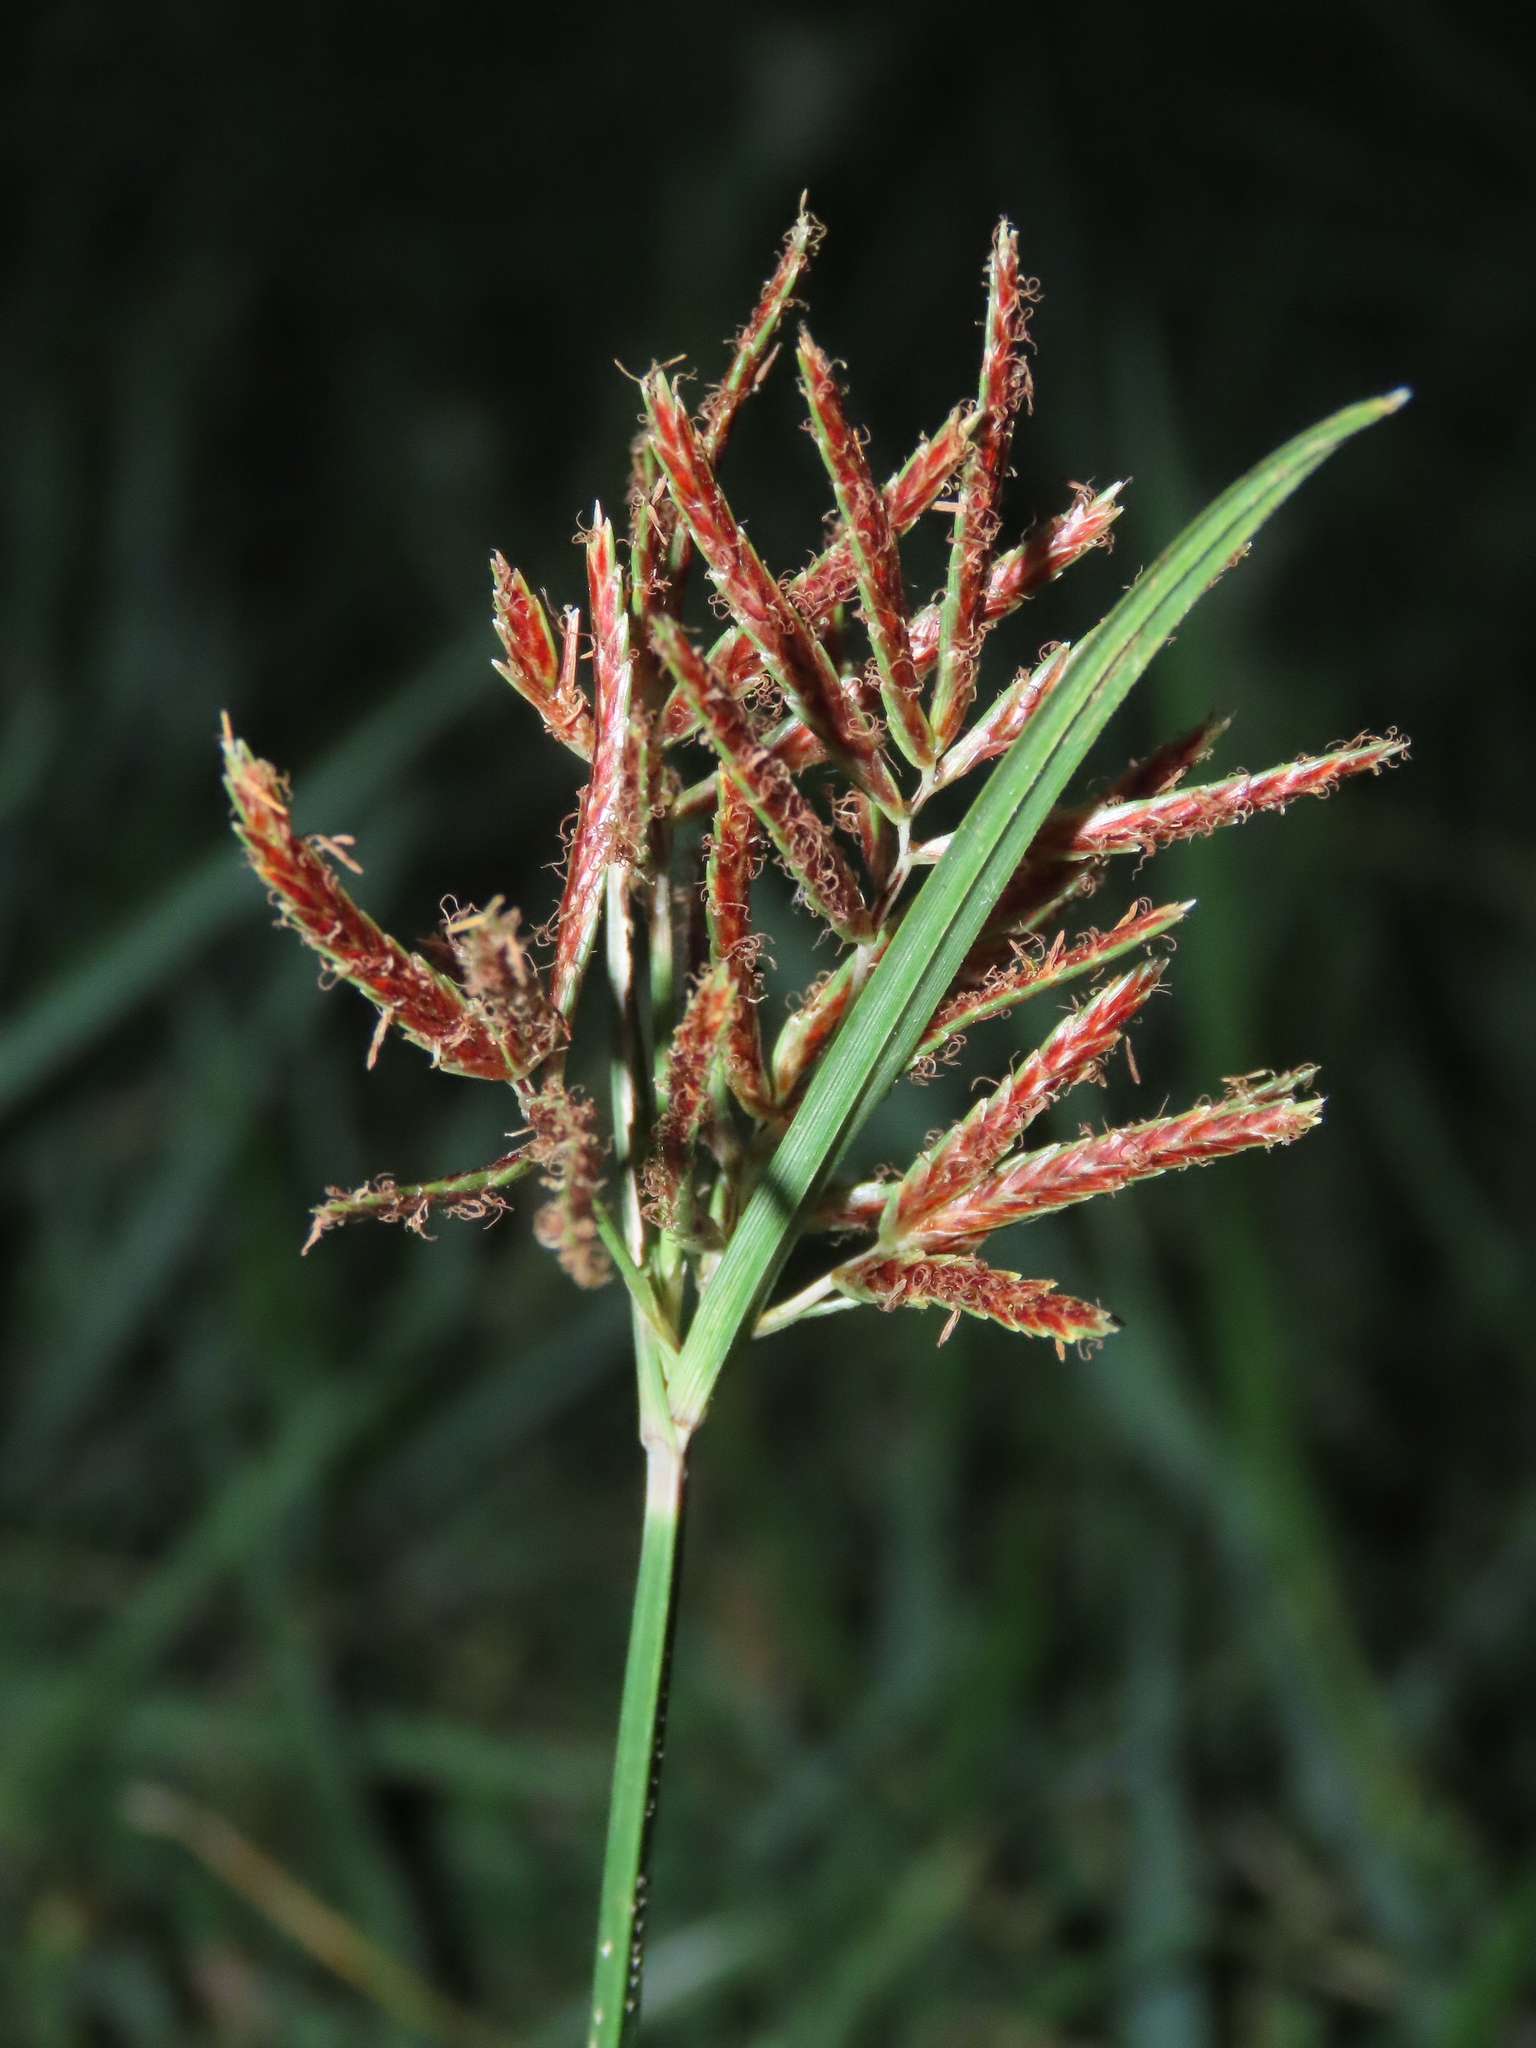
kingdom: Plantae
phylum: Tracheophyta
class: Liliopsida
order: Poales
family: Cyperaceae
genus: Cyperus
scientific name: Cyperus rotundus
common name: Nutgrass
